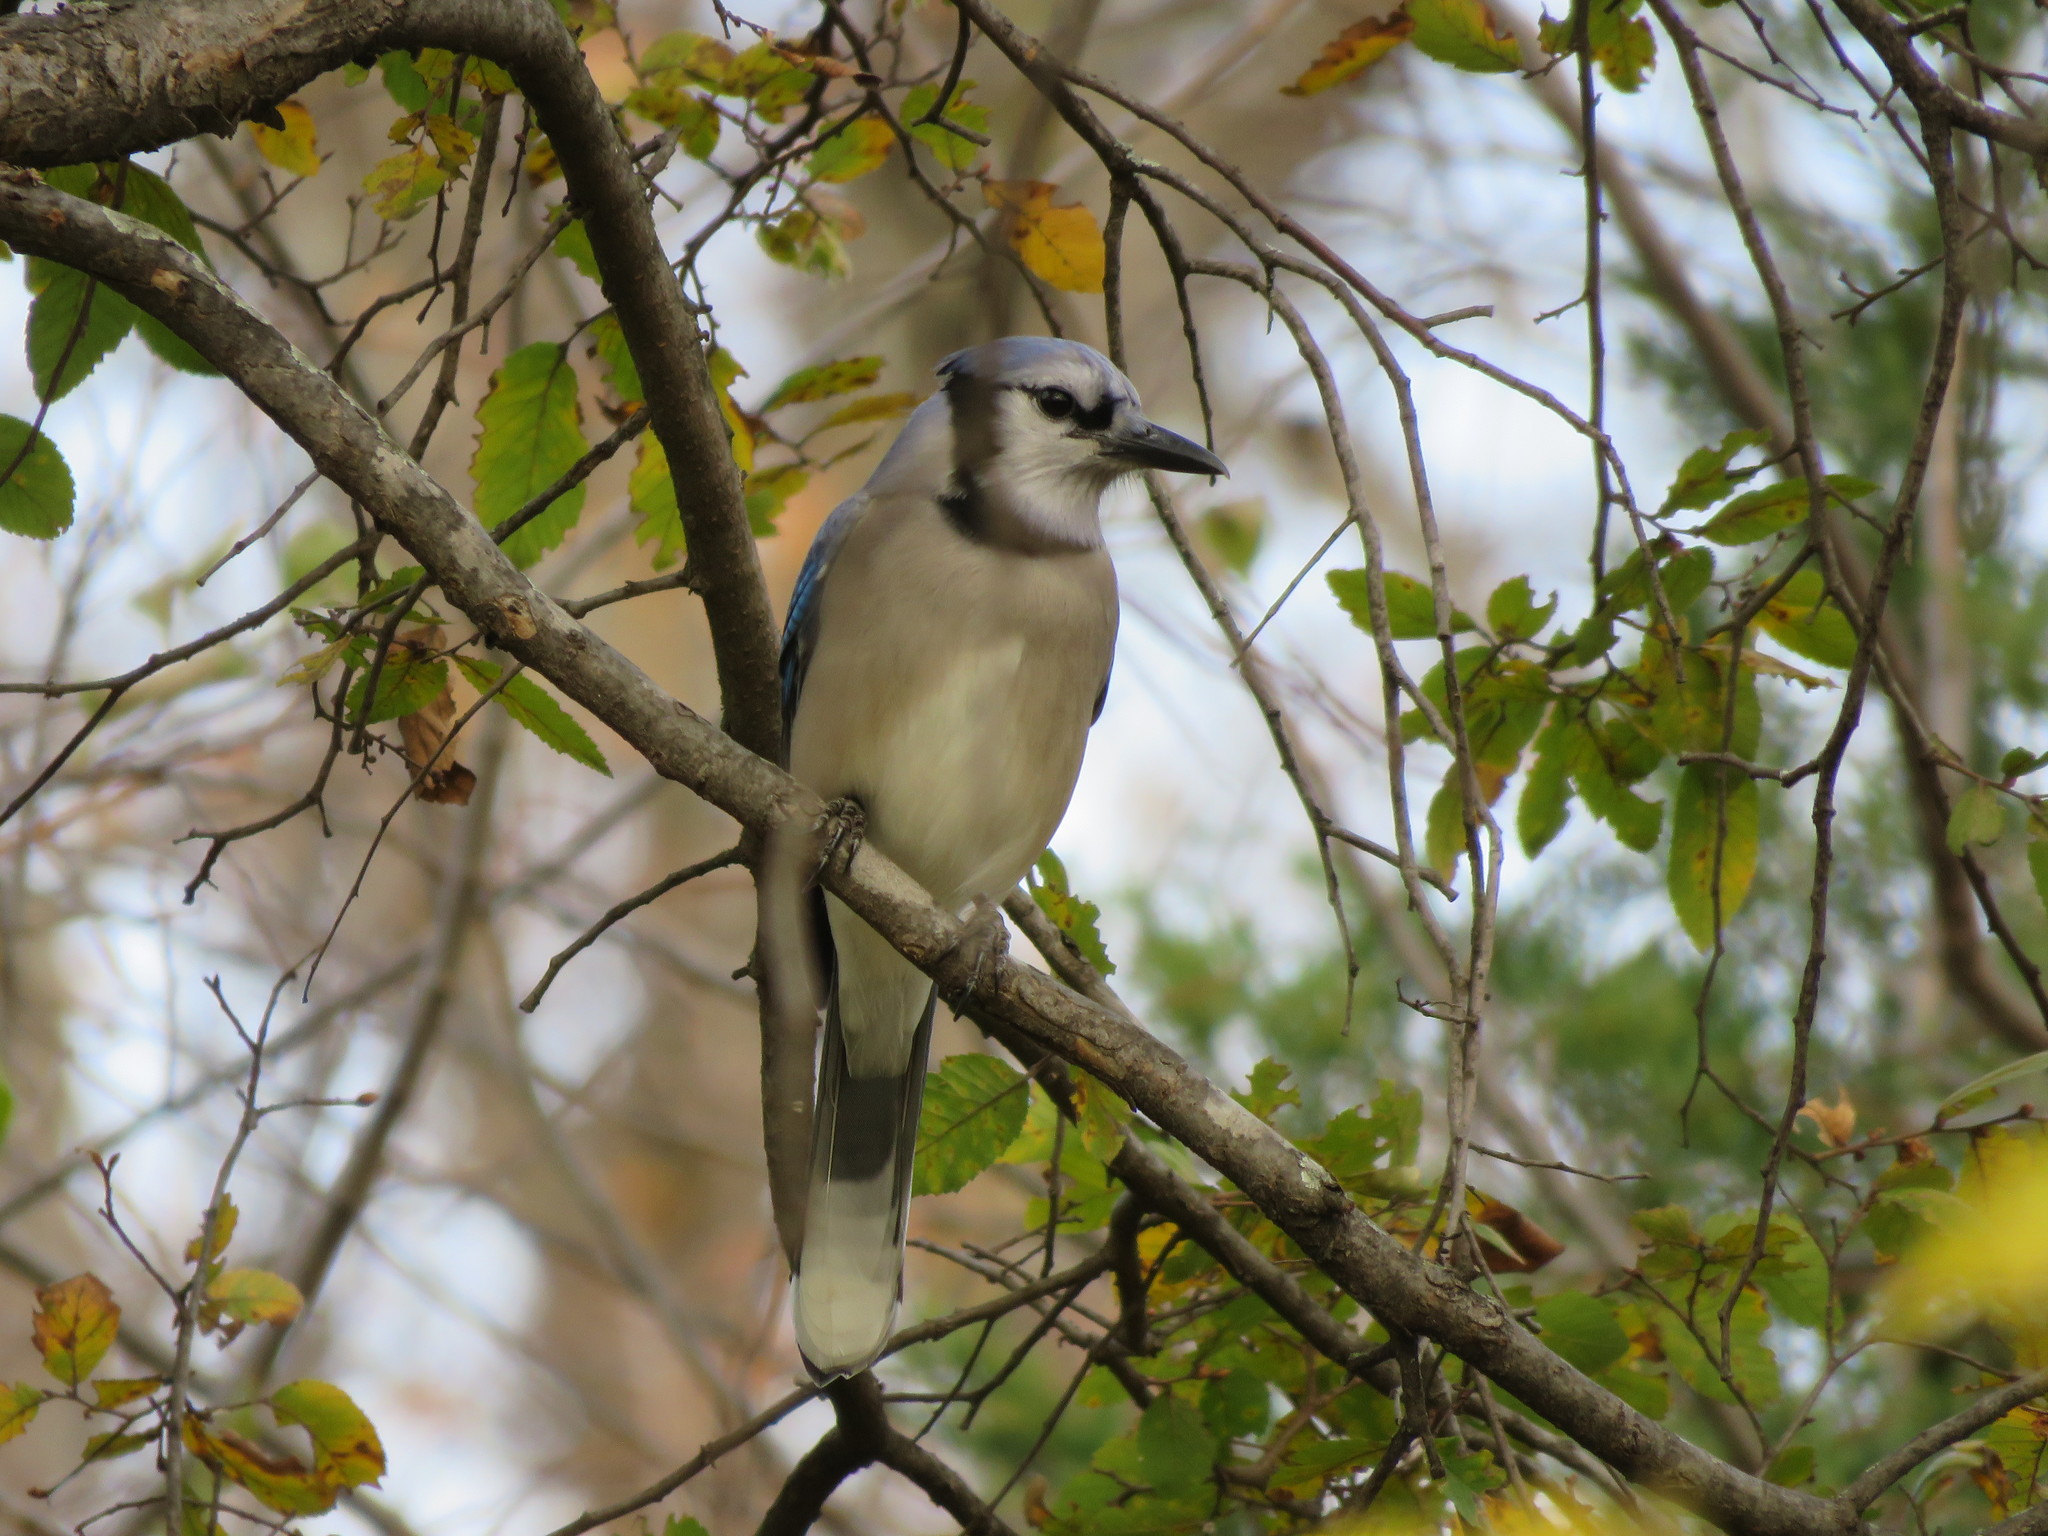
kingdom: Animalia
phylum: Chordata
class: Aves
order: Passeriformes
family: Corvidae
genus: Cyanocitta
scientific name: Cyanocitta cristata
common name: Blue jay
